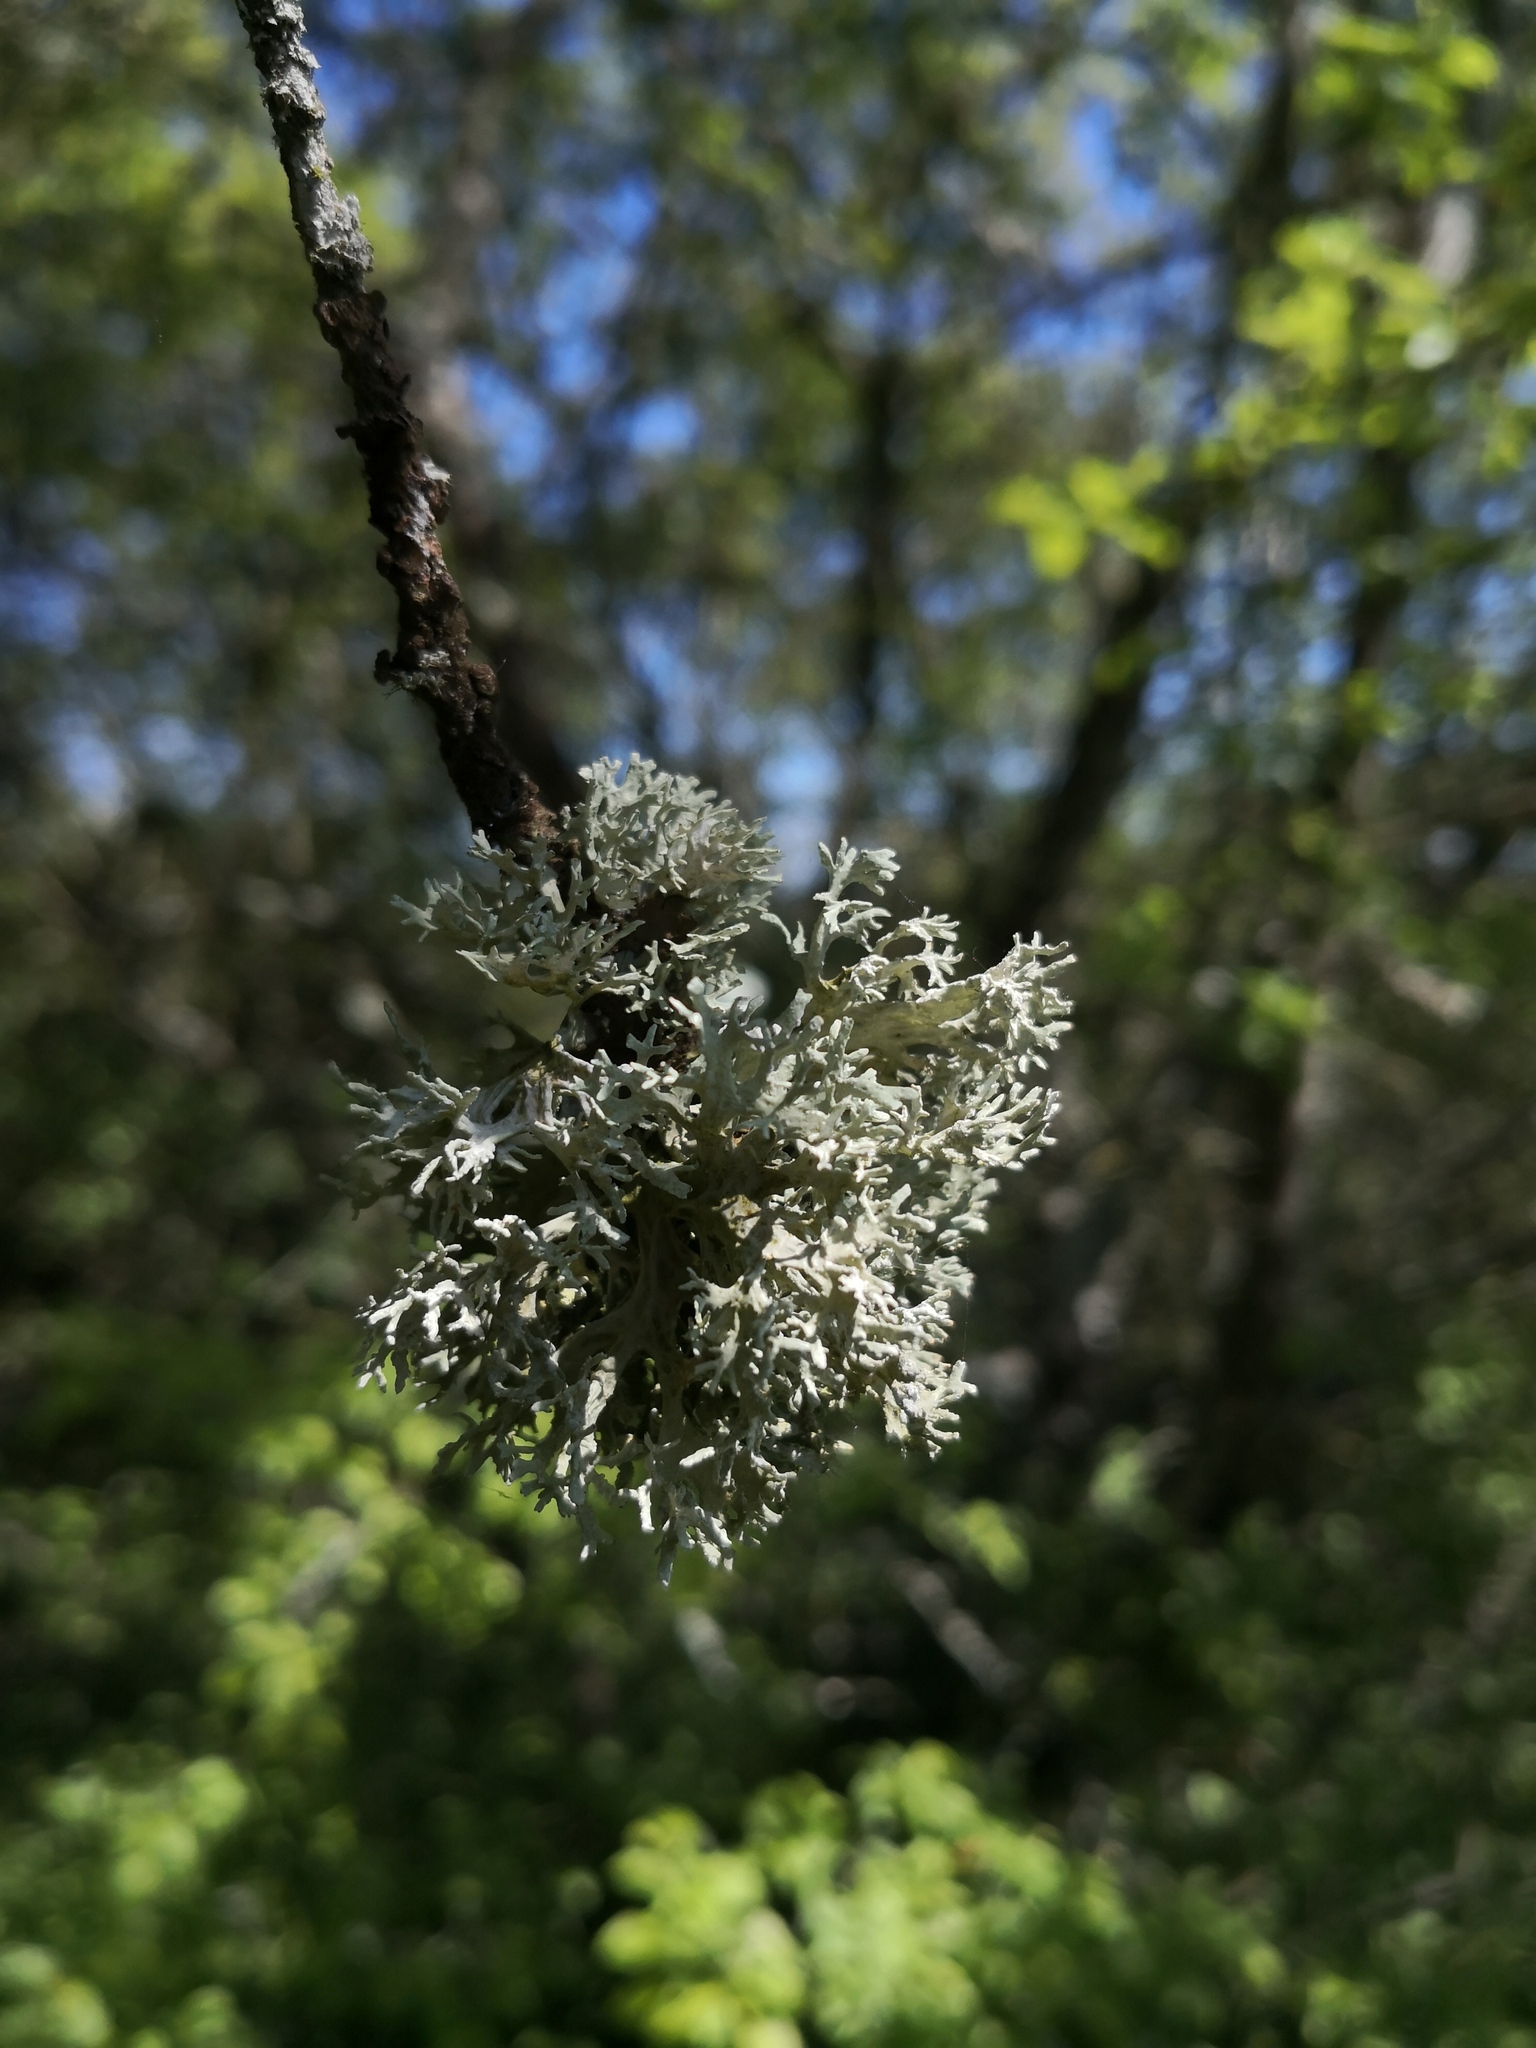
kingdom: Fungi
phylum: Ascomycota
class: Lecanoromycetes
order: Lecanorales
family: Parmeliaceae
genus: Evernia
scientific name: Evernia prunastri
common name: Oak moss
